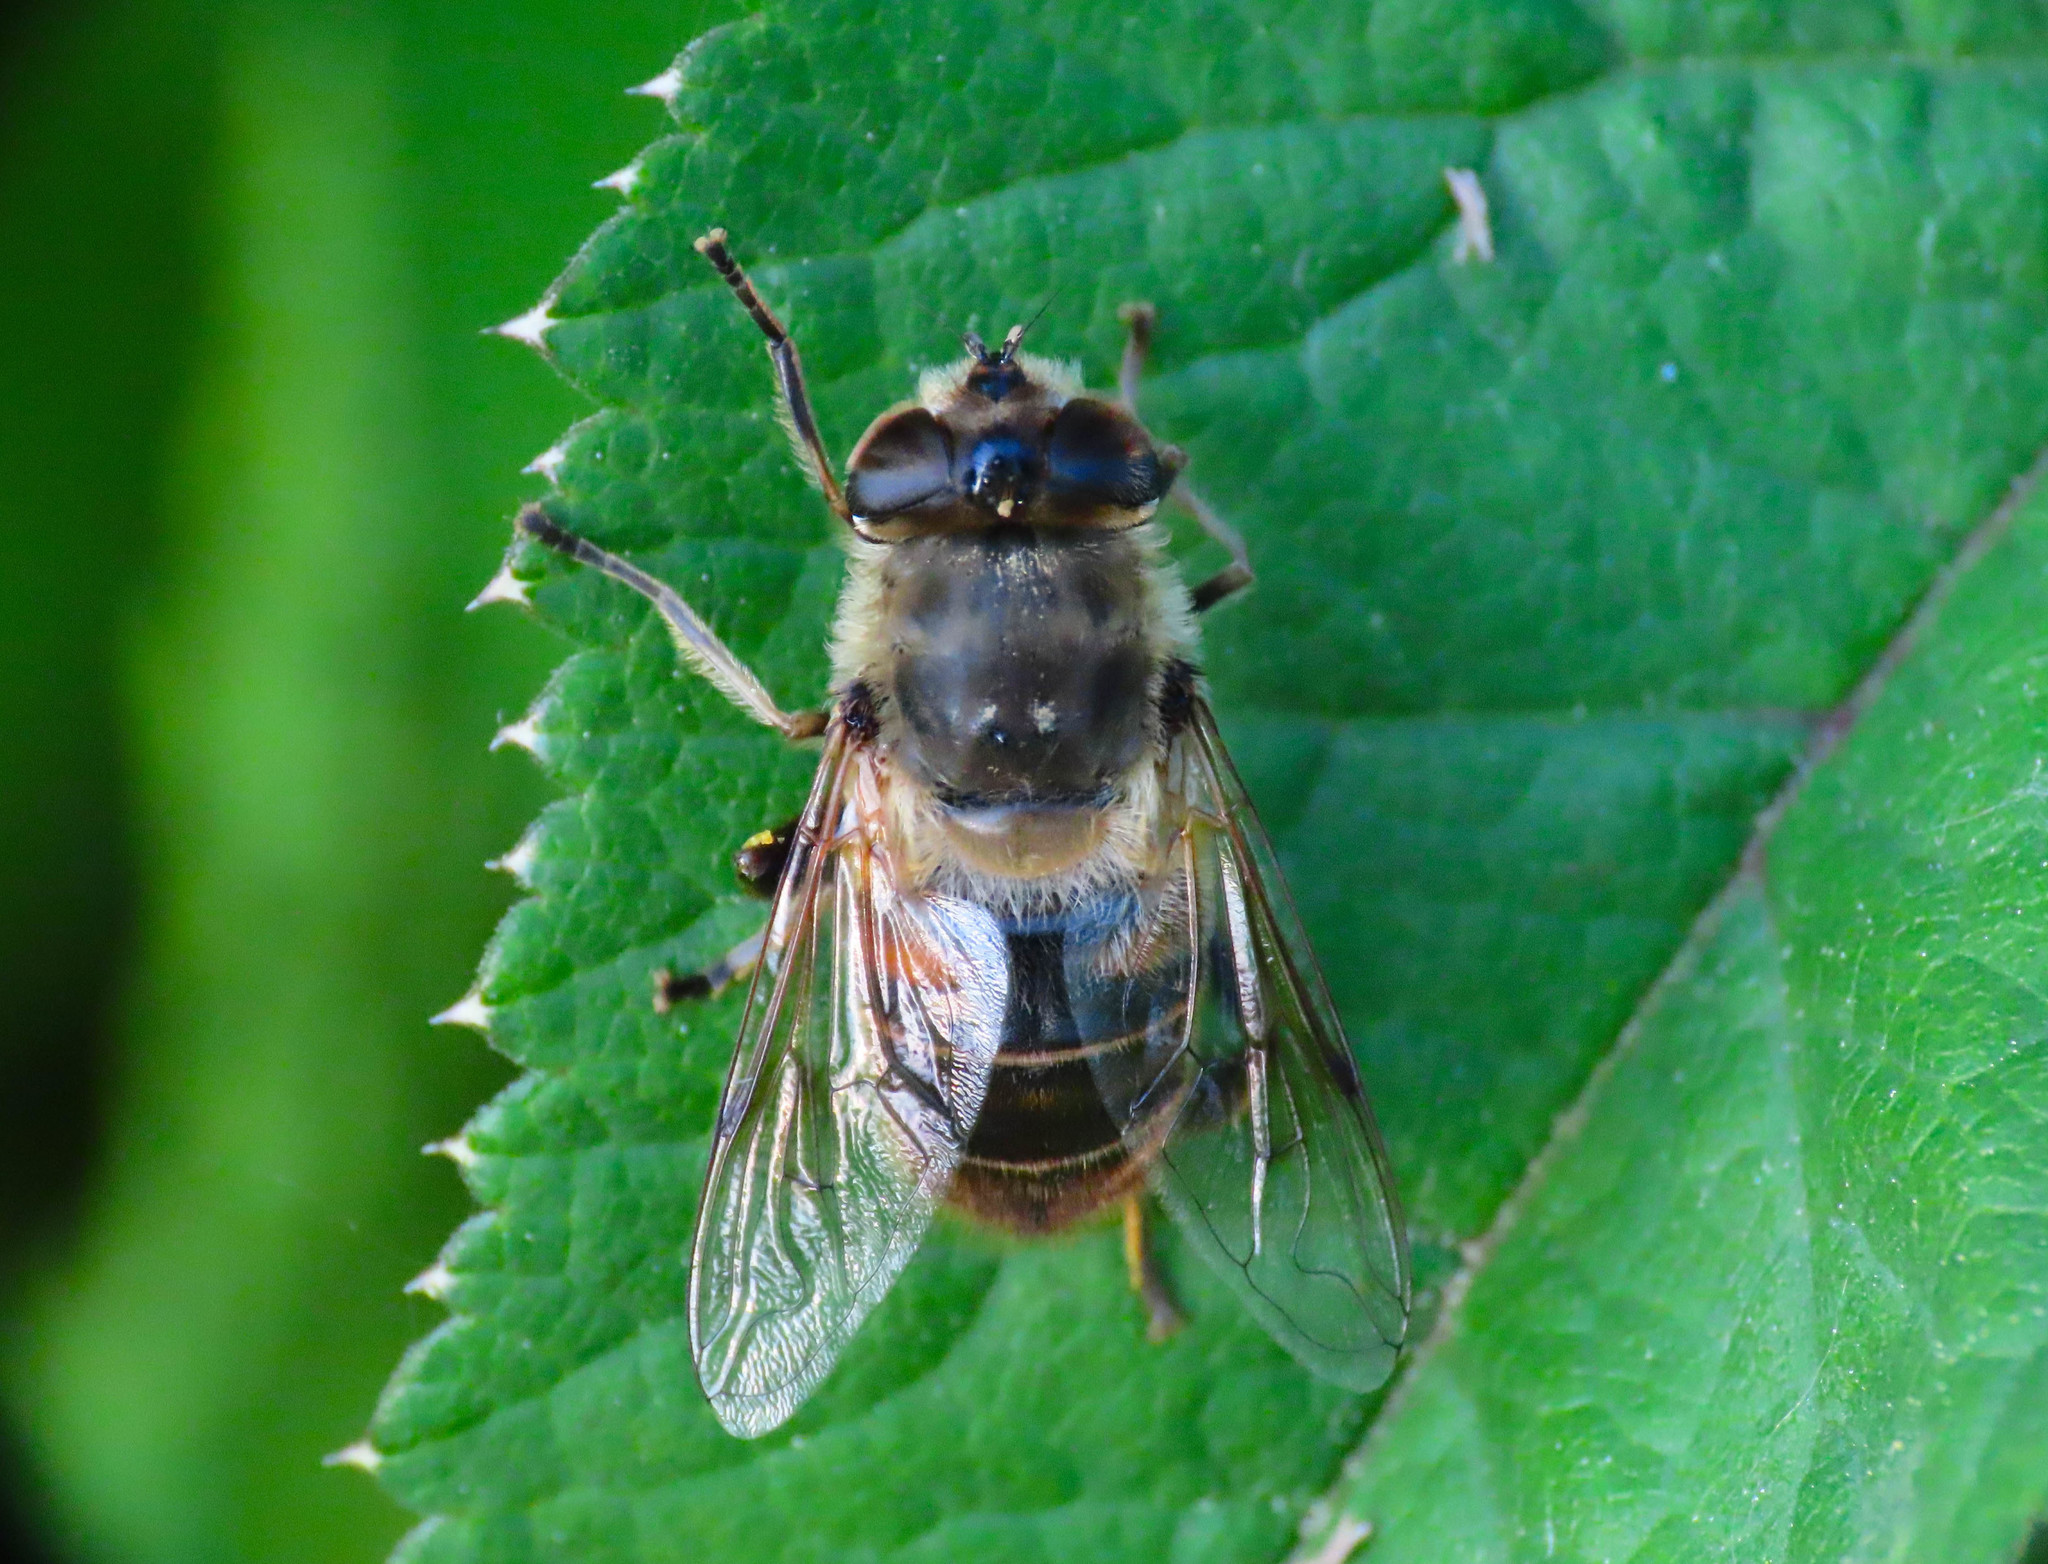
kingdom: Animalia
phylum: Arthropoda
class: Insecta
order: Diptera
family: Syrphidae
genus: Eristalis
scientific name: Eristalis tenax
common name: Drone fly
